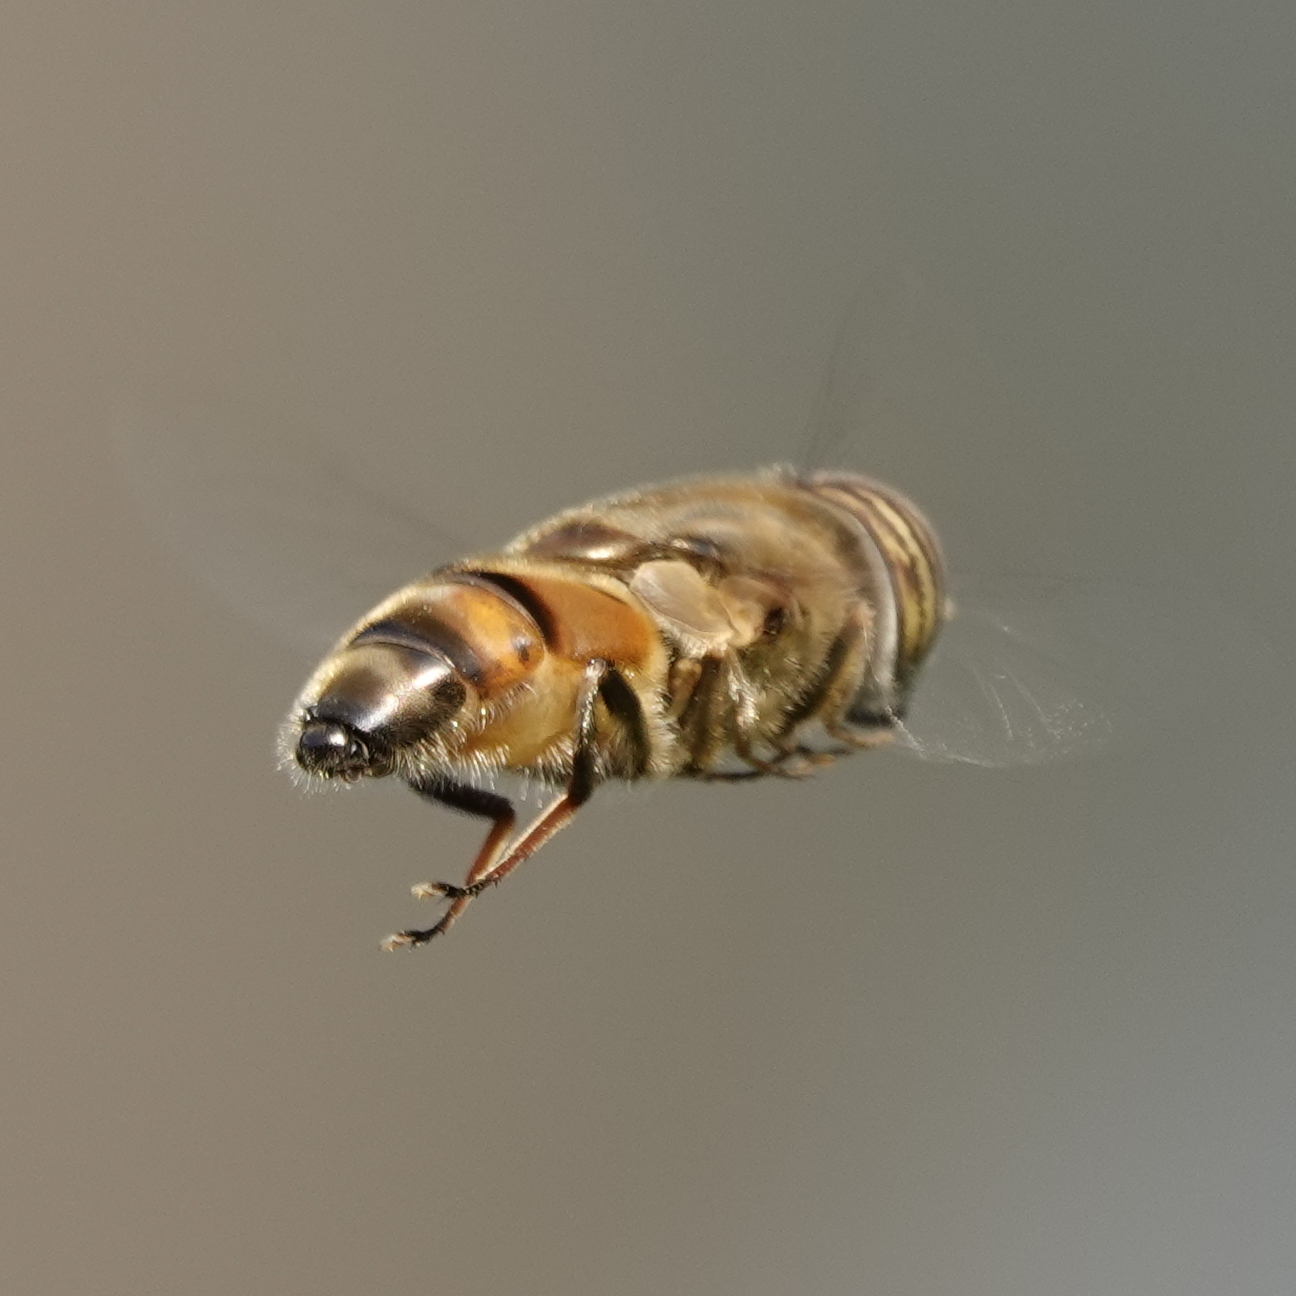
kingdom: Animalia
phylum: Arthropoda
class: Insecta
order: Diptera
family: Syrphidae
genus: Eristalinus
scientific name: Eristalinus taeniops
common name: Syrphid fly
